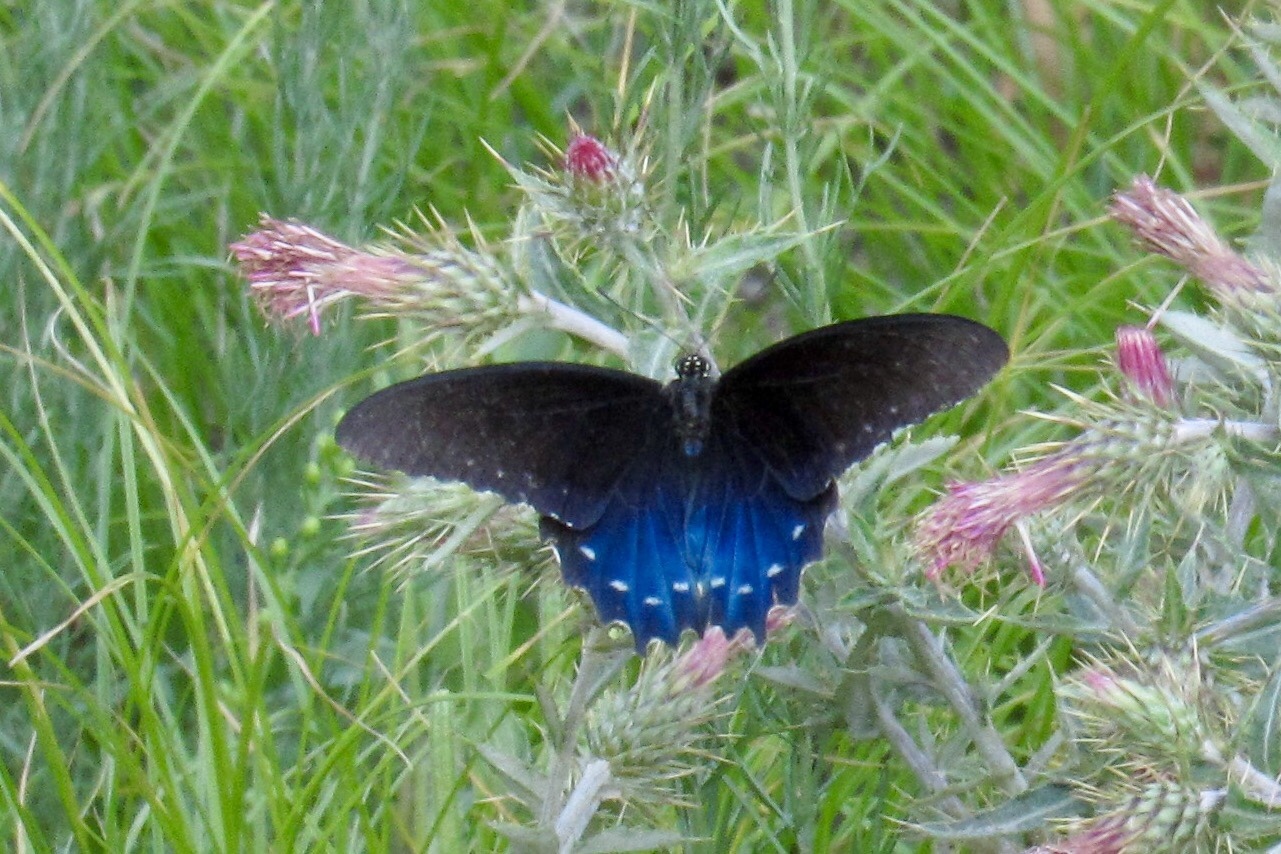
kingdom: Animalia
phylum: Arthropoda
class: Insecta
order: Lepidoptera
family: Papilionidae
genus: Battus
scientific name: Battus philenor
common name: Pipevine swallowtail
